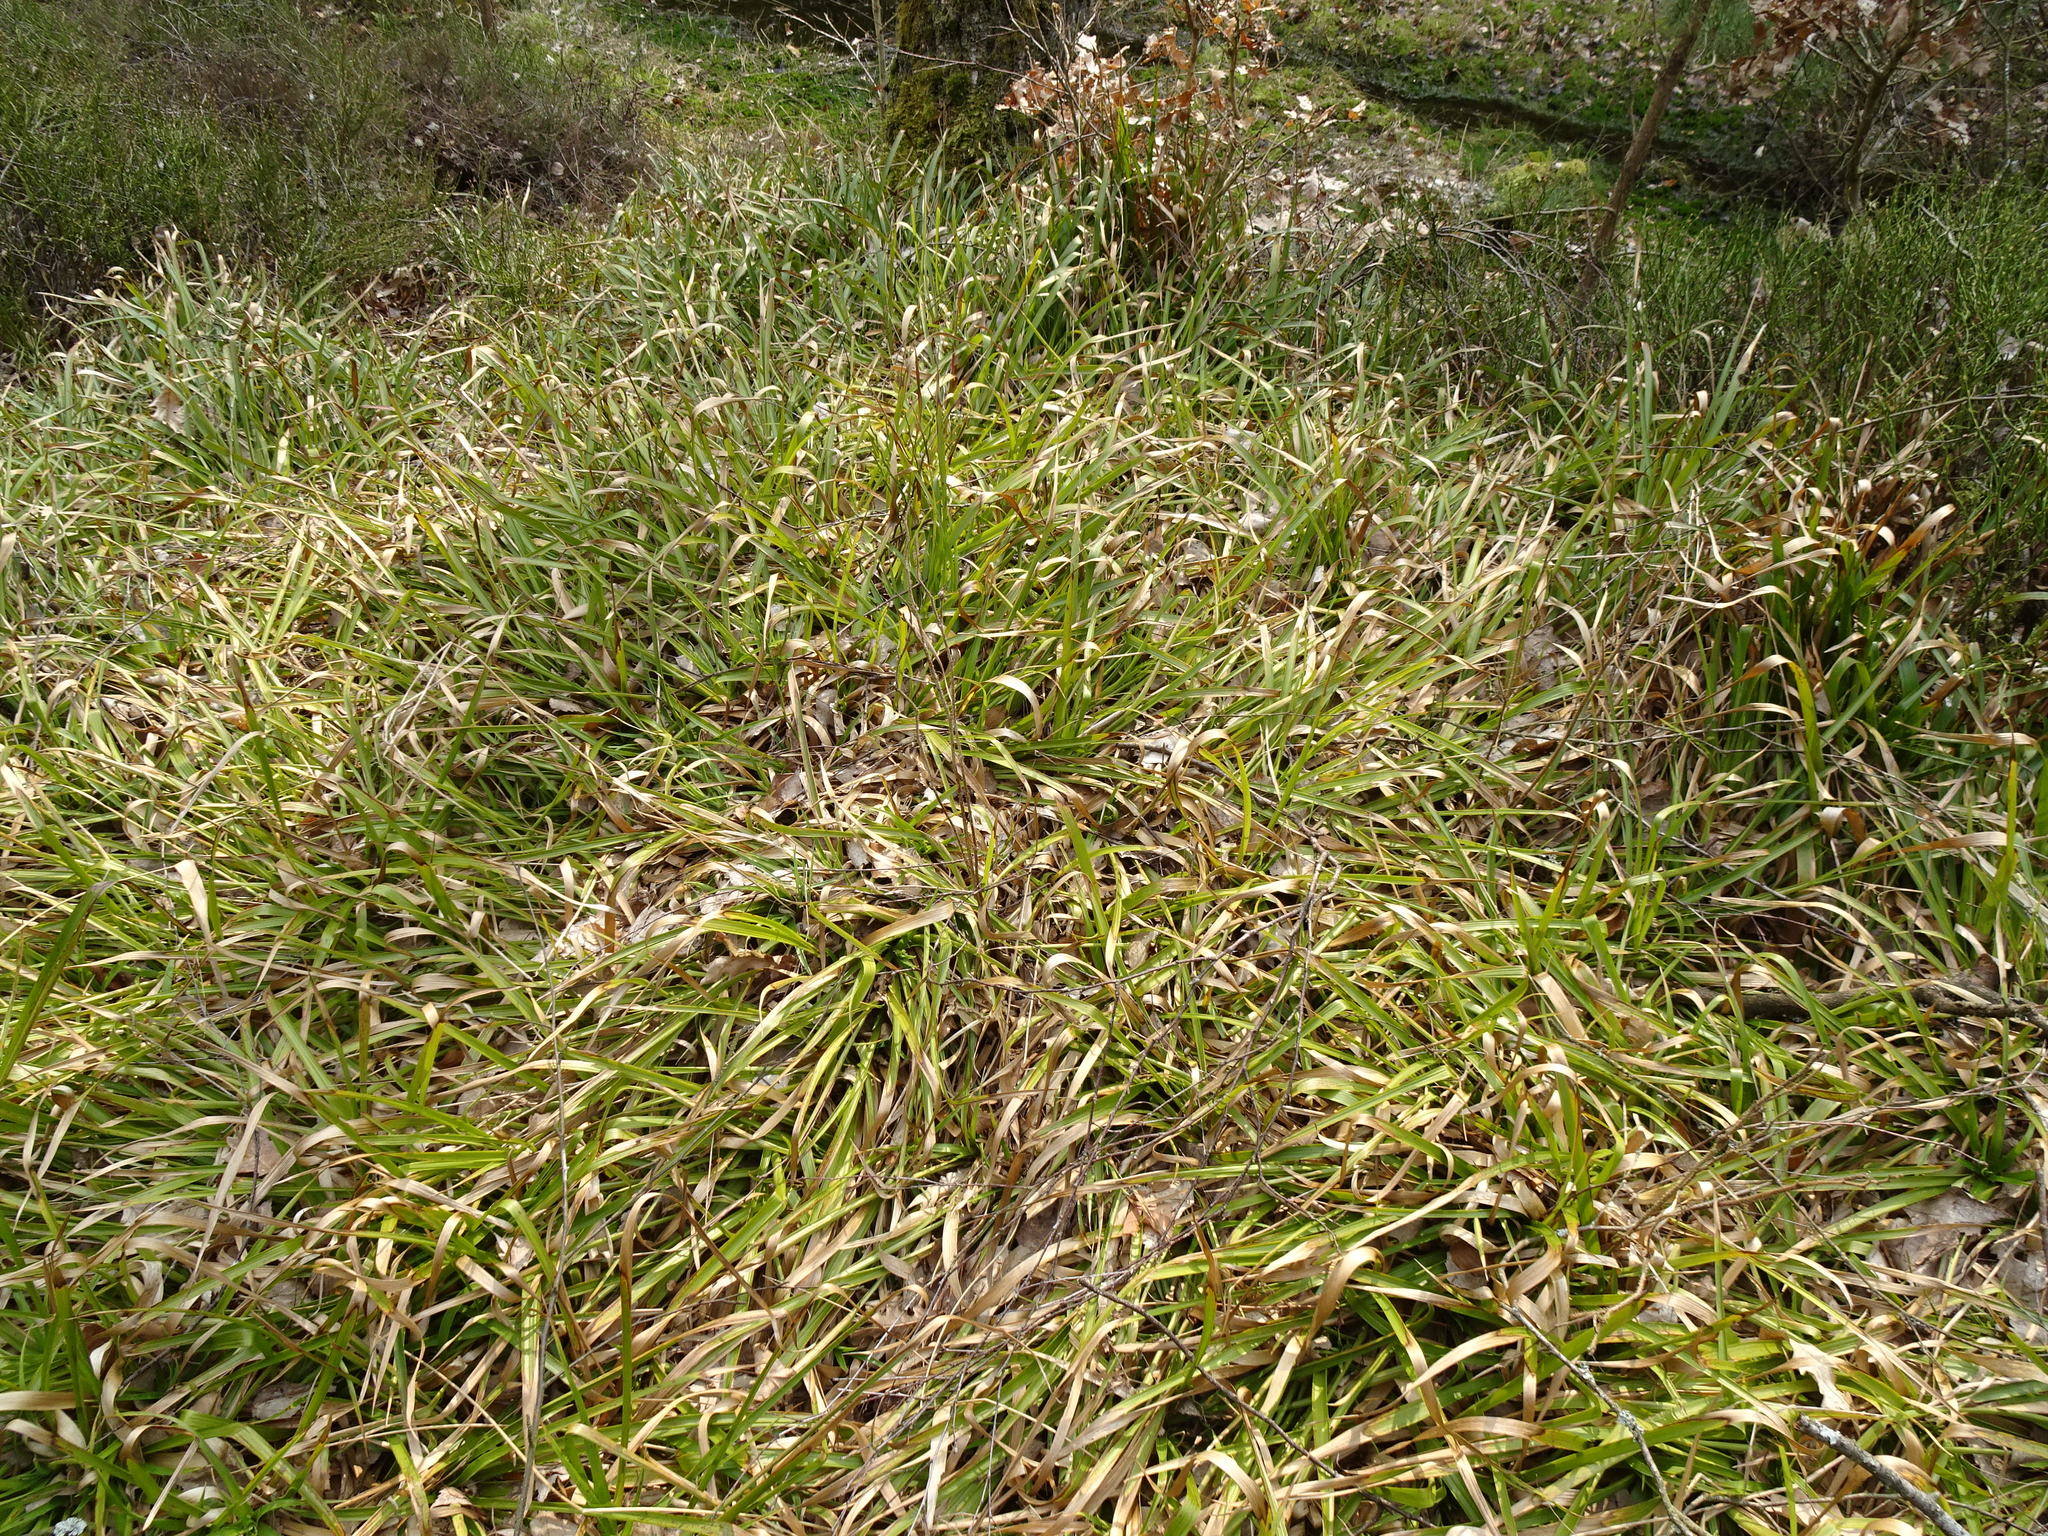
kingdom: Plantae
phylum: Tracheophyta
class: Liliopsida
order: Poales
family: Cyperaceae
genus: Scirpus
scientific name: Scirpus sylvaticus
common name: Wood club-rush
